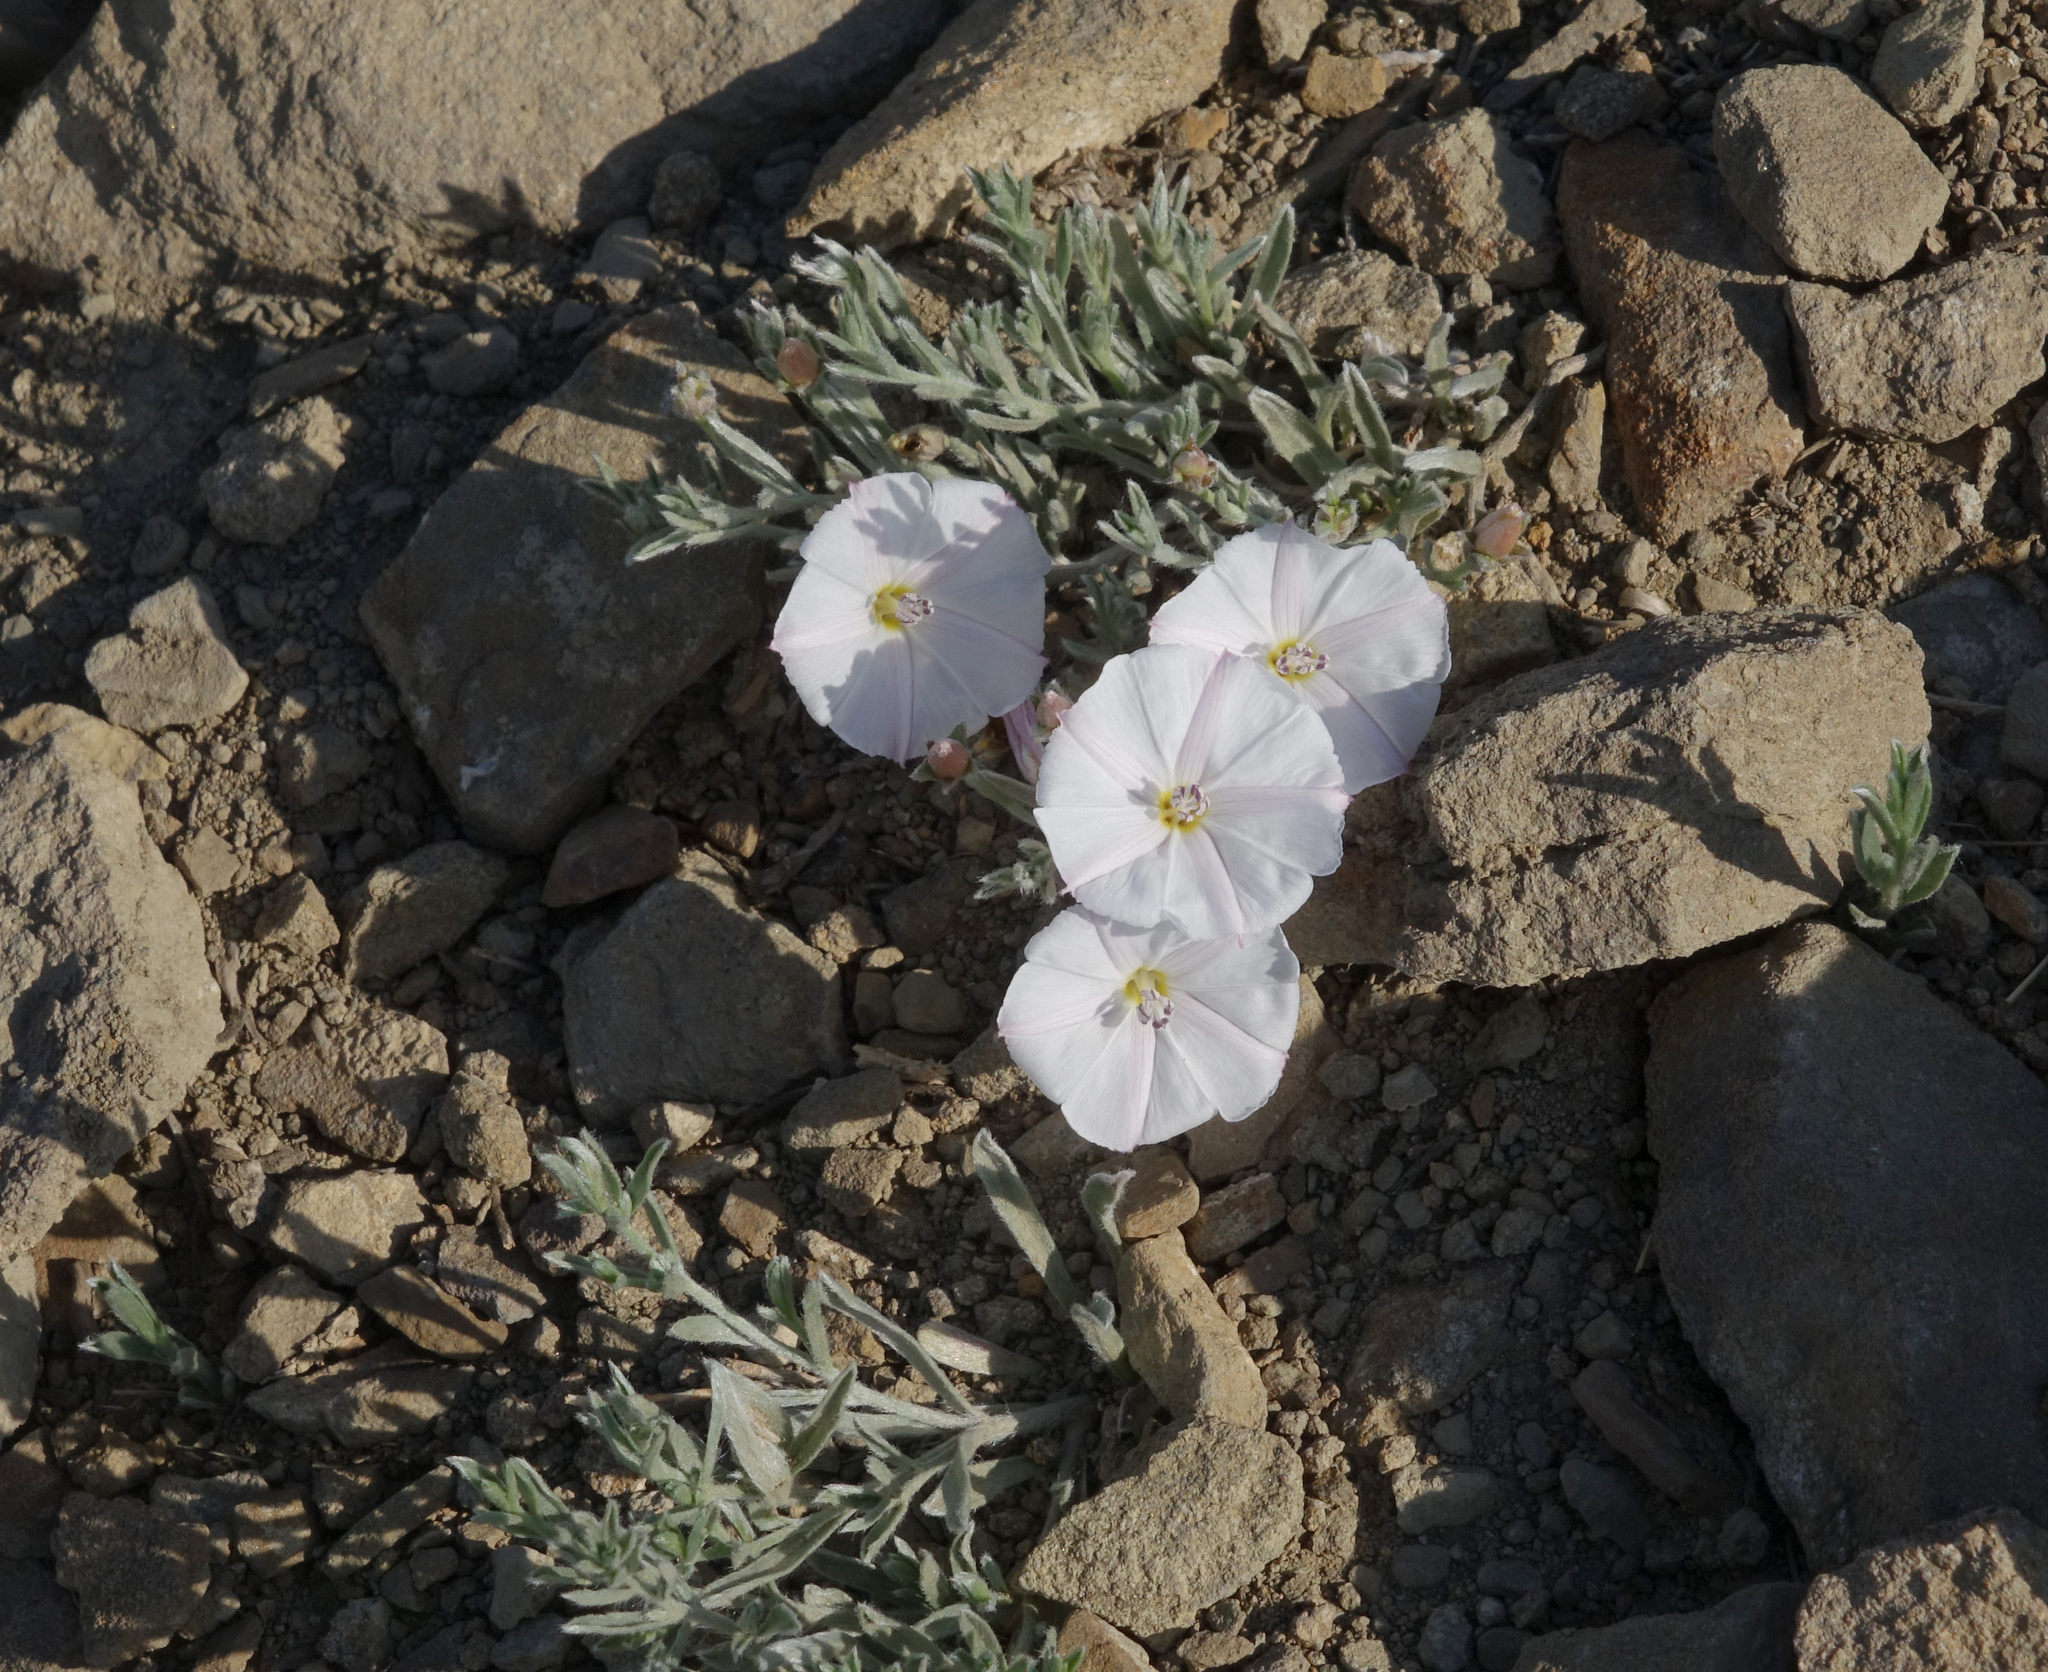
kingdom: Plantae
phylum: Tracheophyta
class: Magnoliopsida
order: Solanales
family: Convolvulaceae
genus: Convolvulus
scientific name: Convolvulus ammannii
